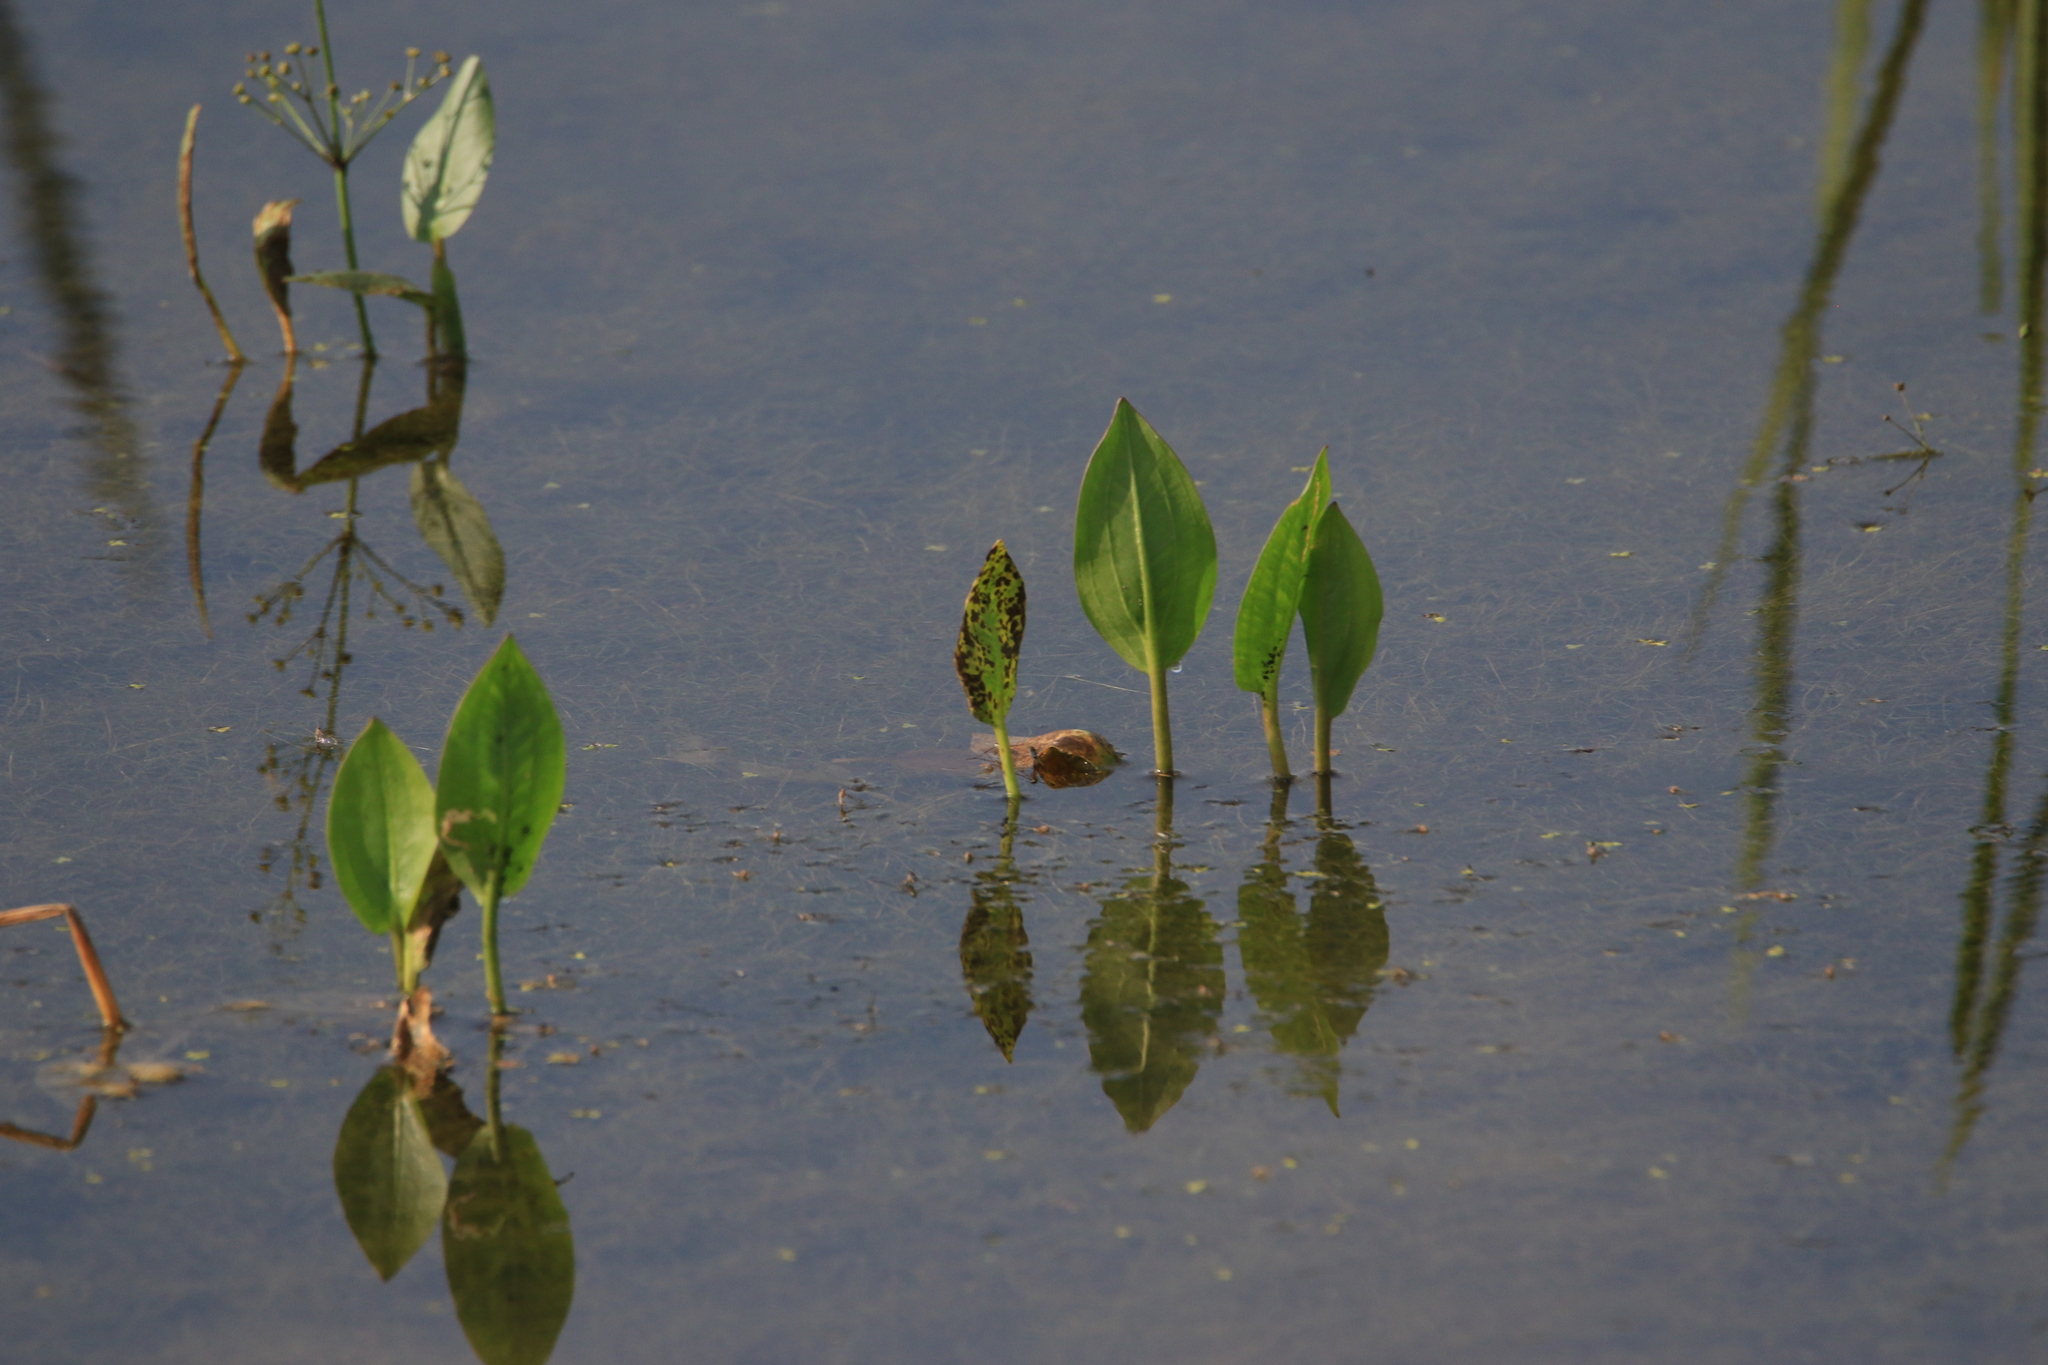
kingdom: Plantae
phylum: Tracheophyta
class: Liliopsida
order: Alismatales
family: Alismataceae
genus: Alisma
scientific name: Alisma plantago-aquatica
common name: Water-plantain
